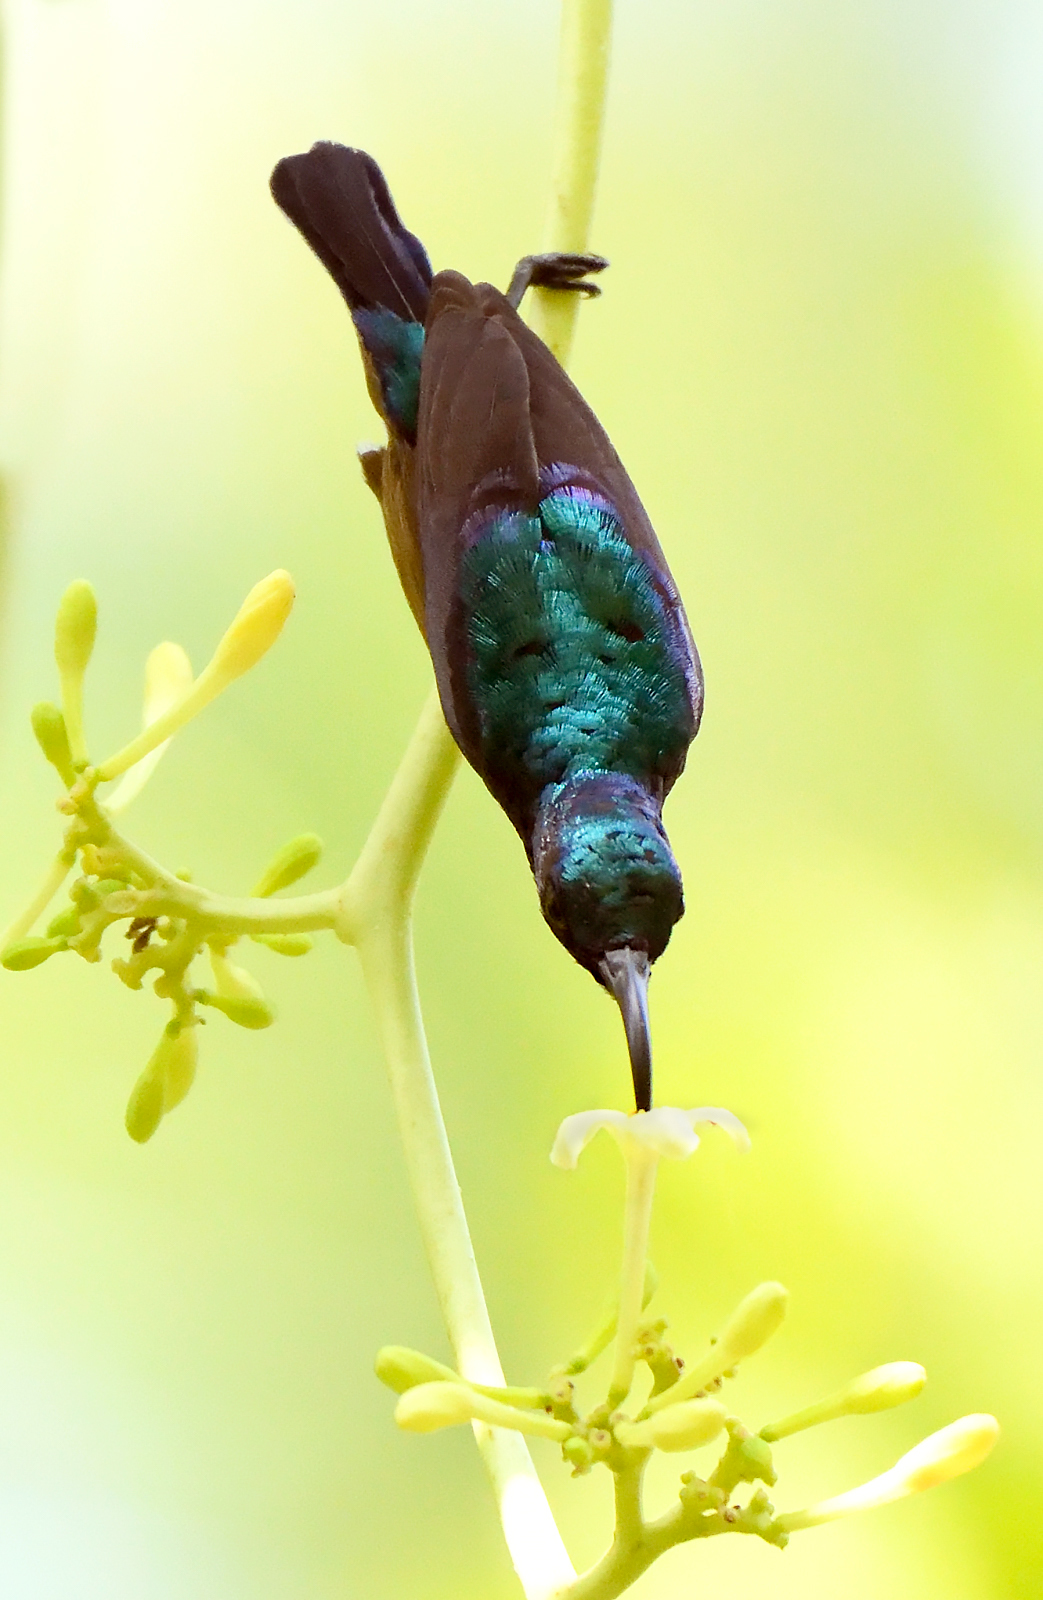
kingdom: Animalia
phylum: Chordata
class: Aves
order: Passeriformes
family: Nectariniidae
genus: Cinnyris
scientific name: Cinnyris lotenius
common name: Loten's sunbird
